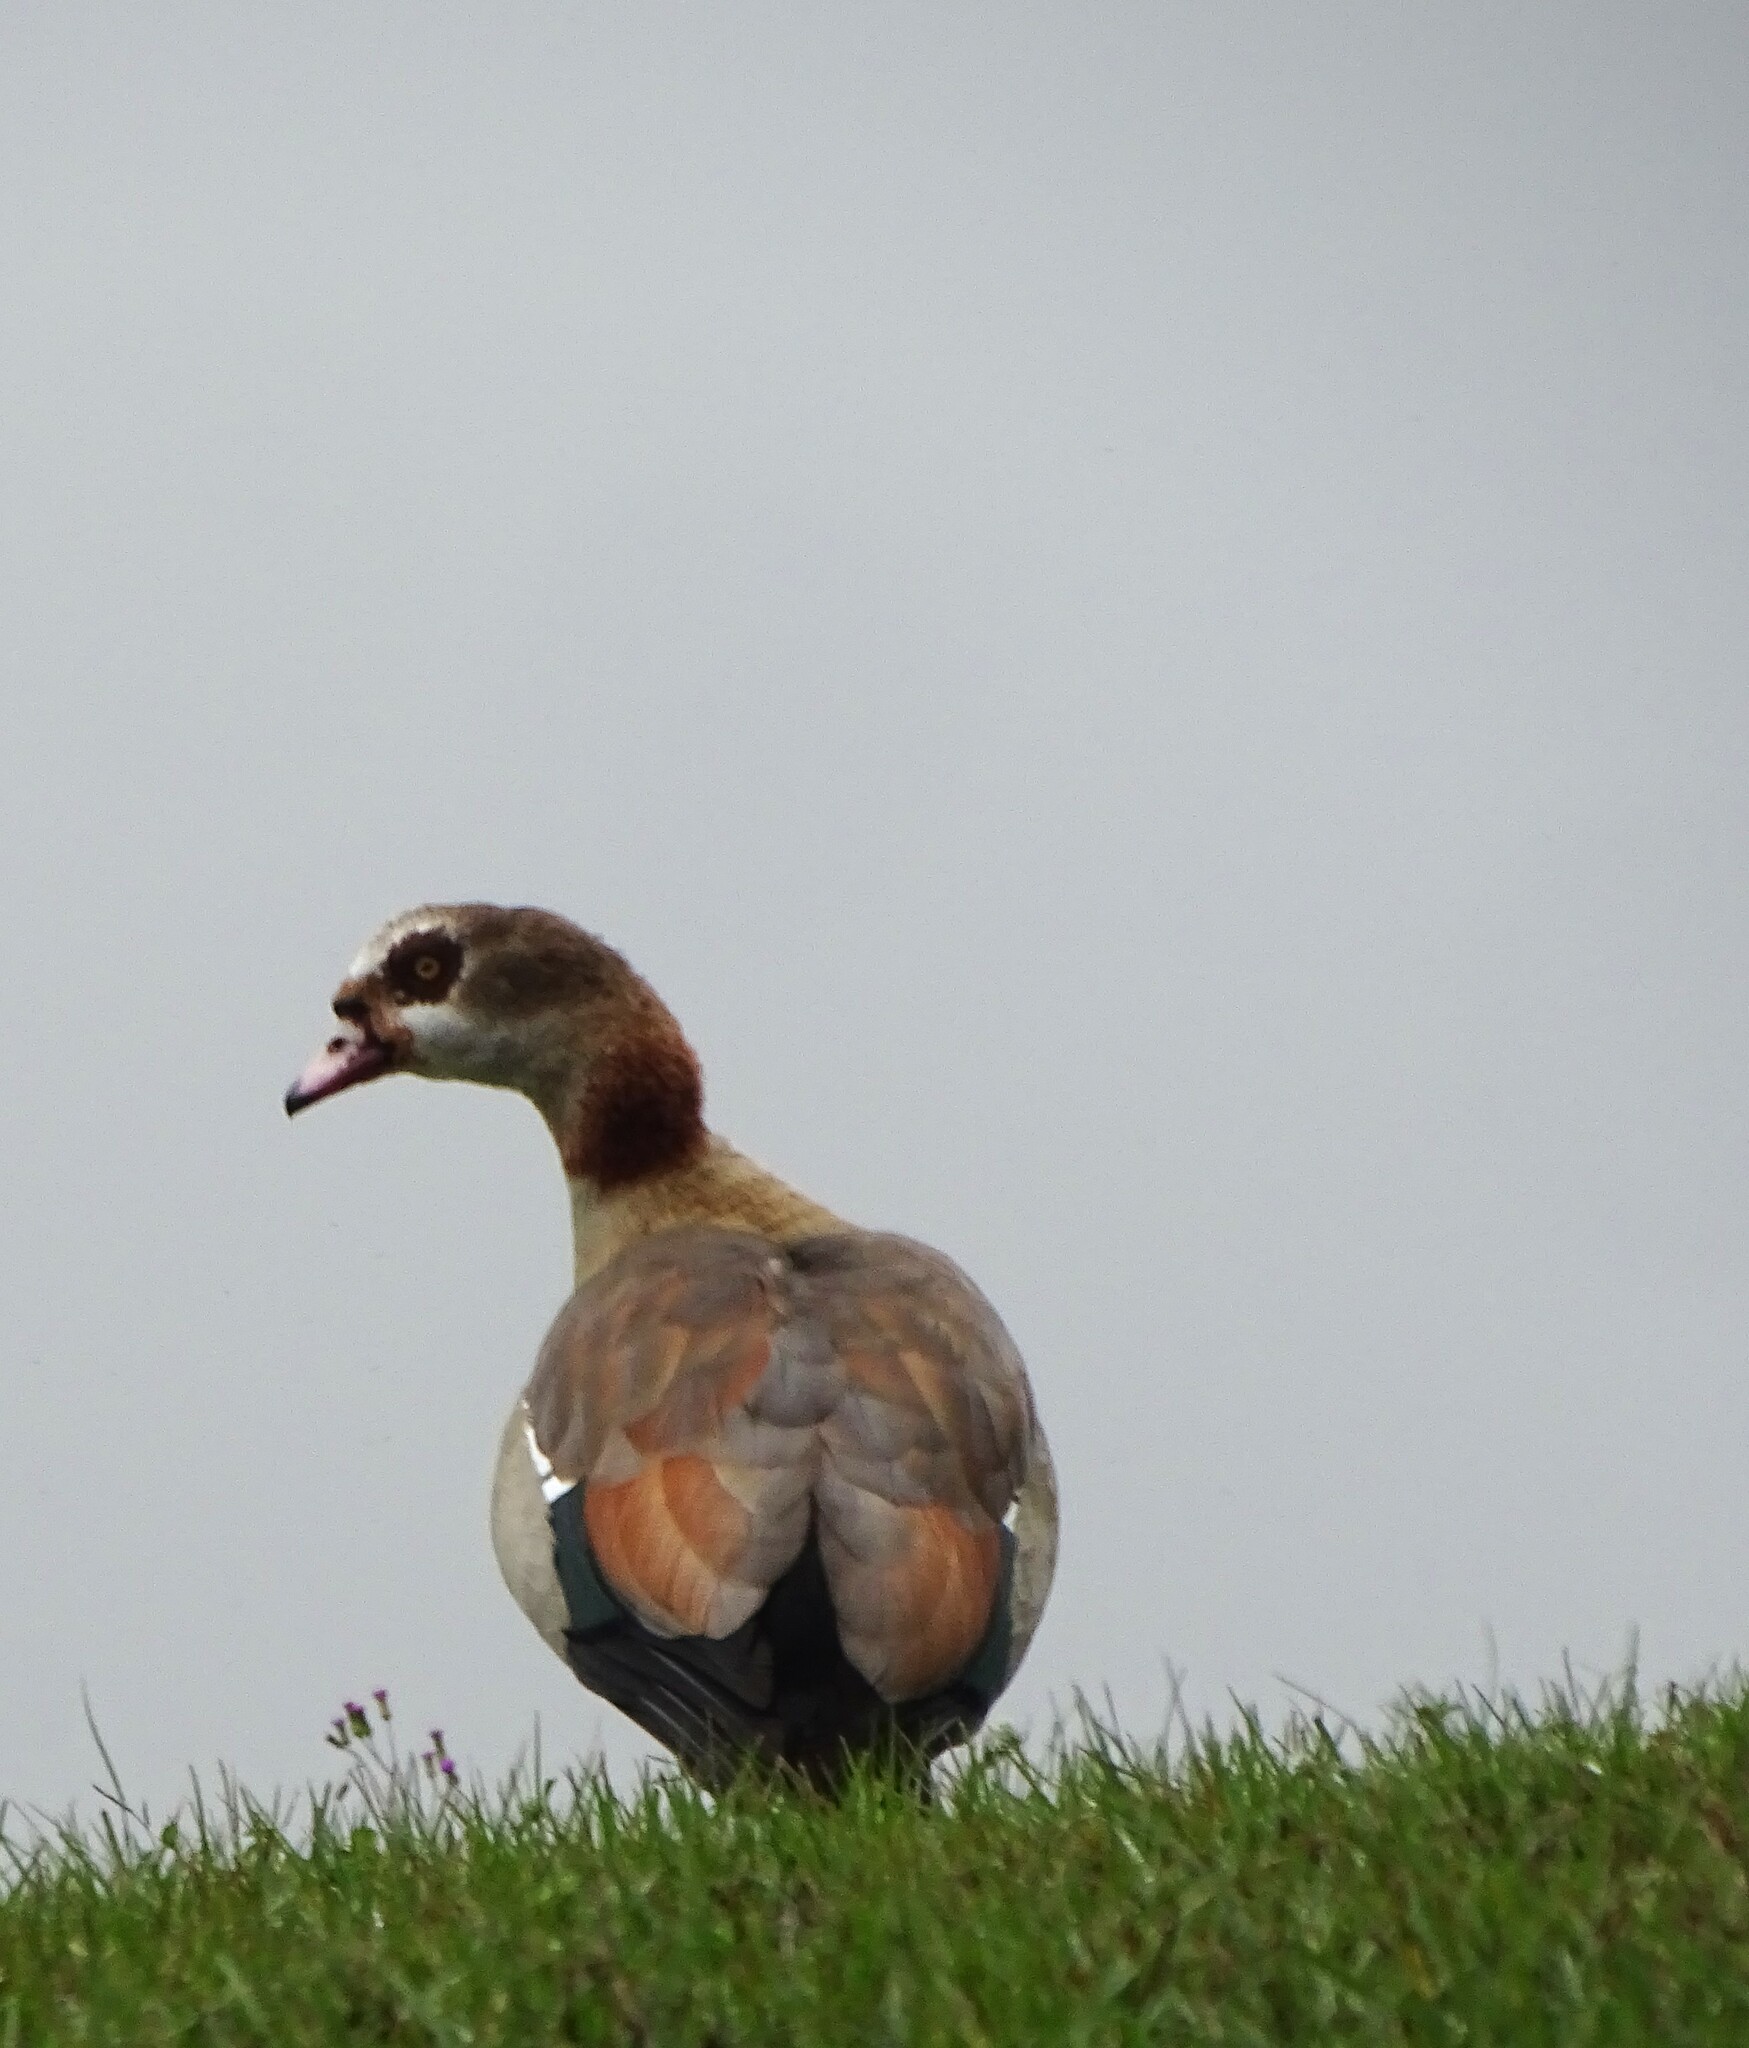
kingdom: Animalia
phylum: Chordata
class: Aves
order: Anseriformes
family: Anatidae
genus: Alopochen
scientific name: Alopochen aegyptiaca
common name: Egyptian goose
